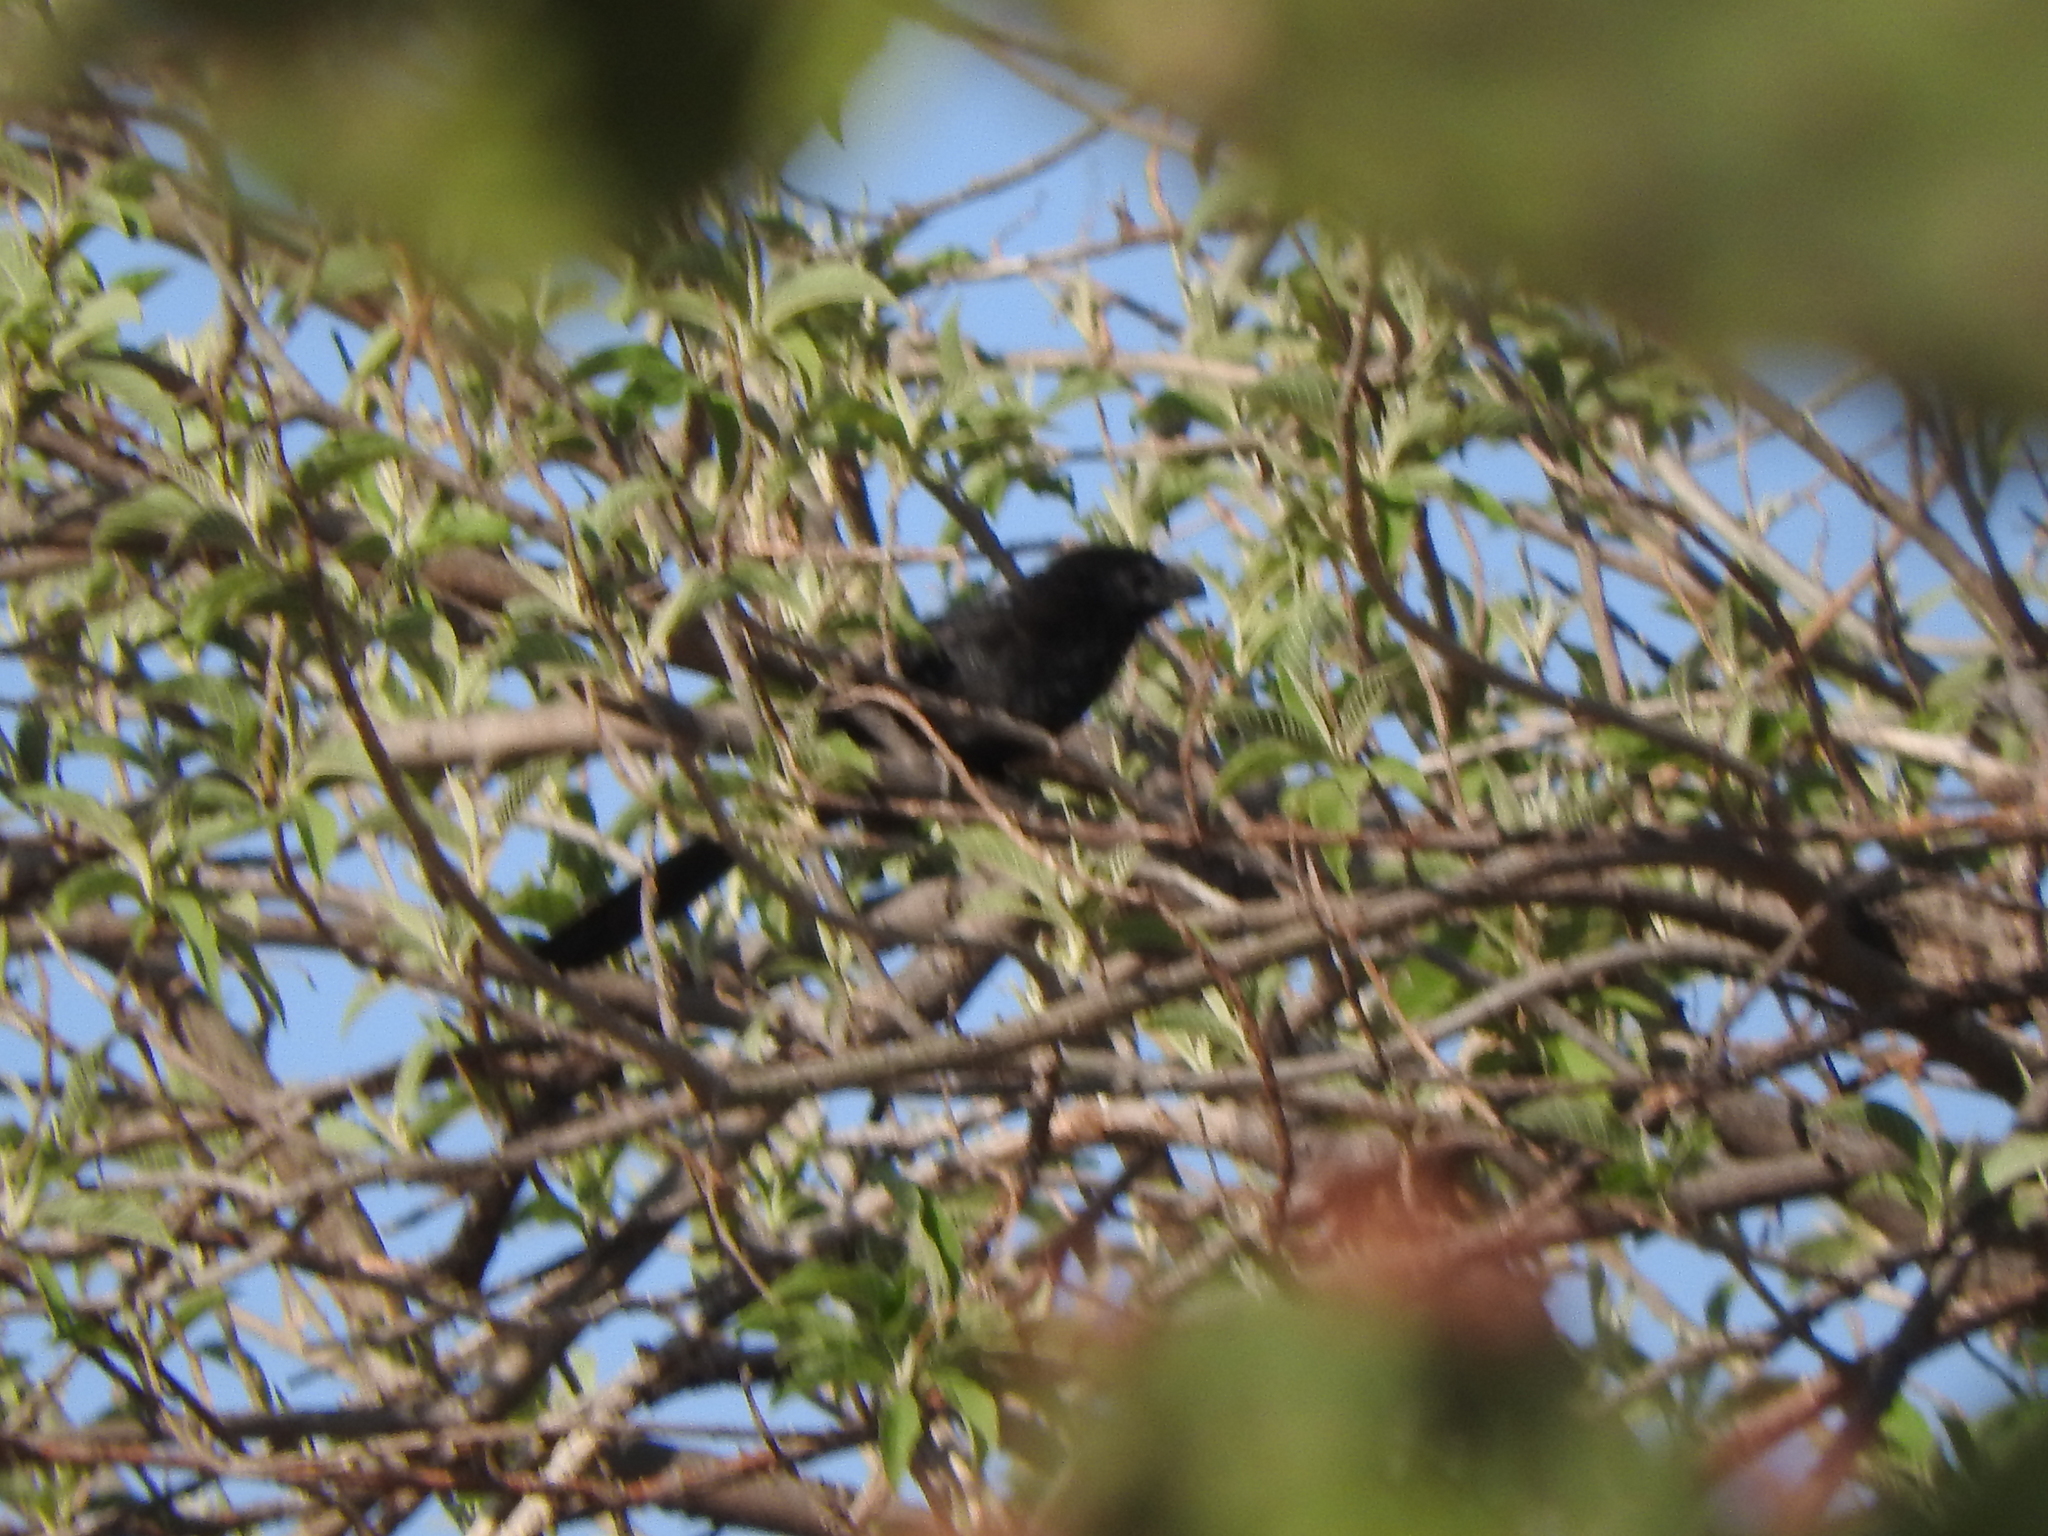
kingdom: Animalia
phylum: Chordata
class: Aves
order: Cuculiformes
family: Cuculidae
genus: Crotophaga
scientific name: Crotophaga sulcirostris
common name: Groove-billed ani
